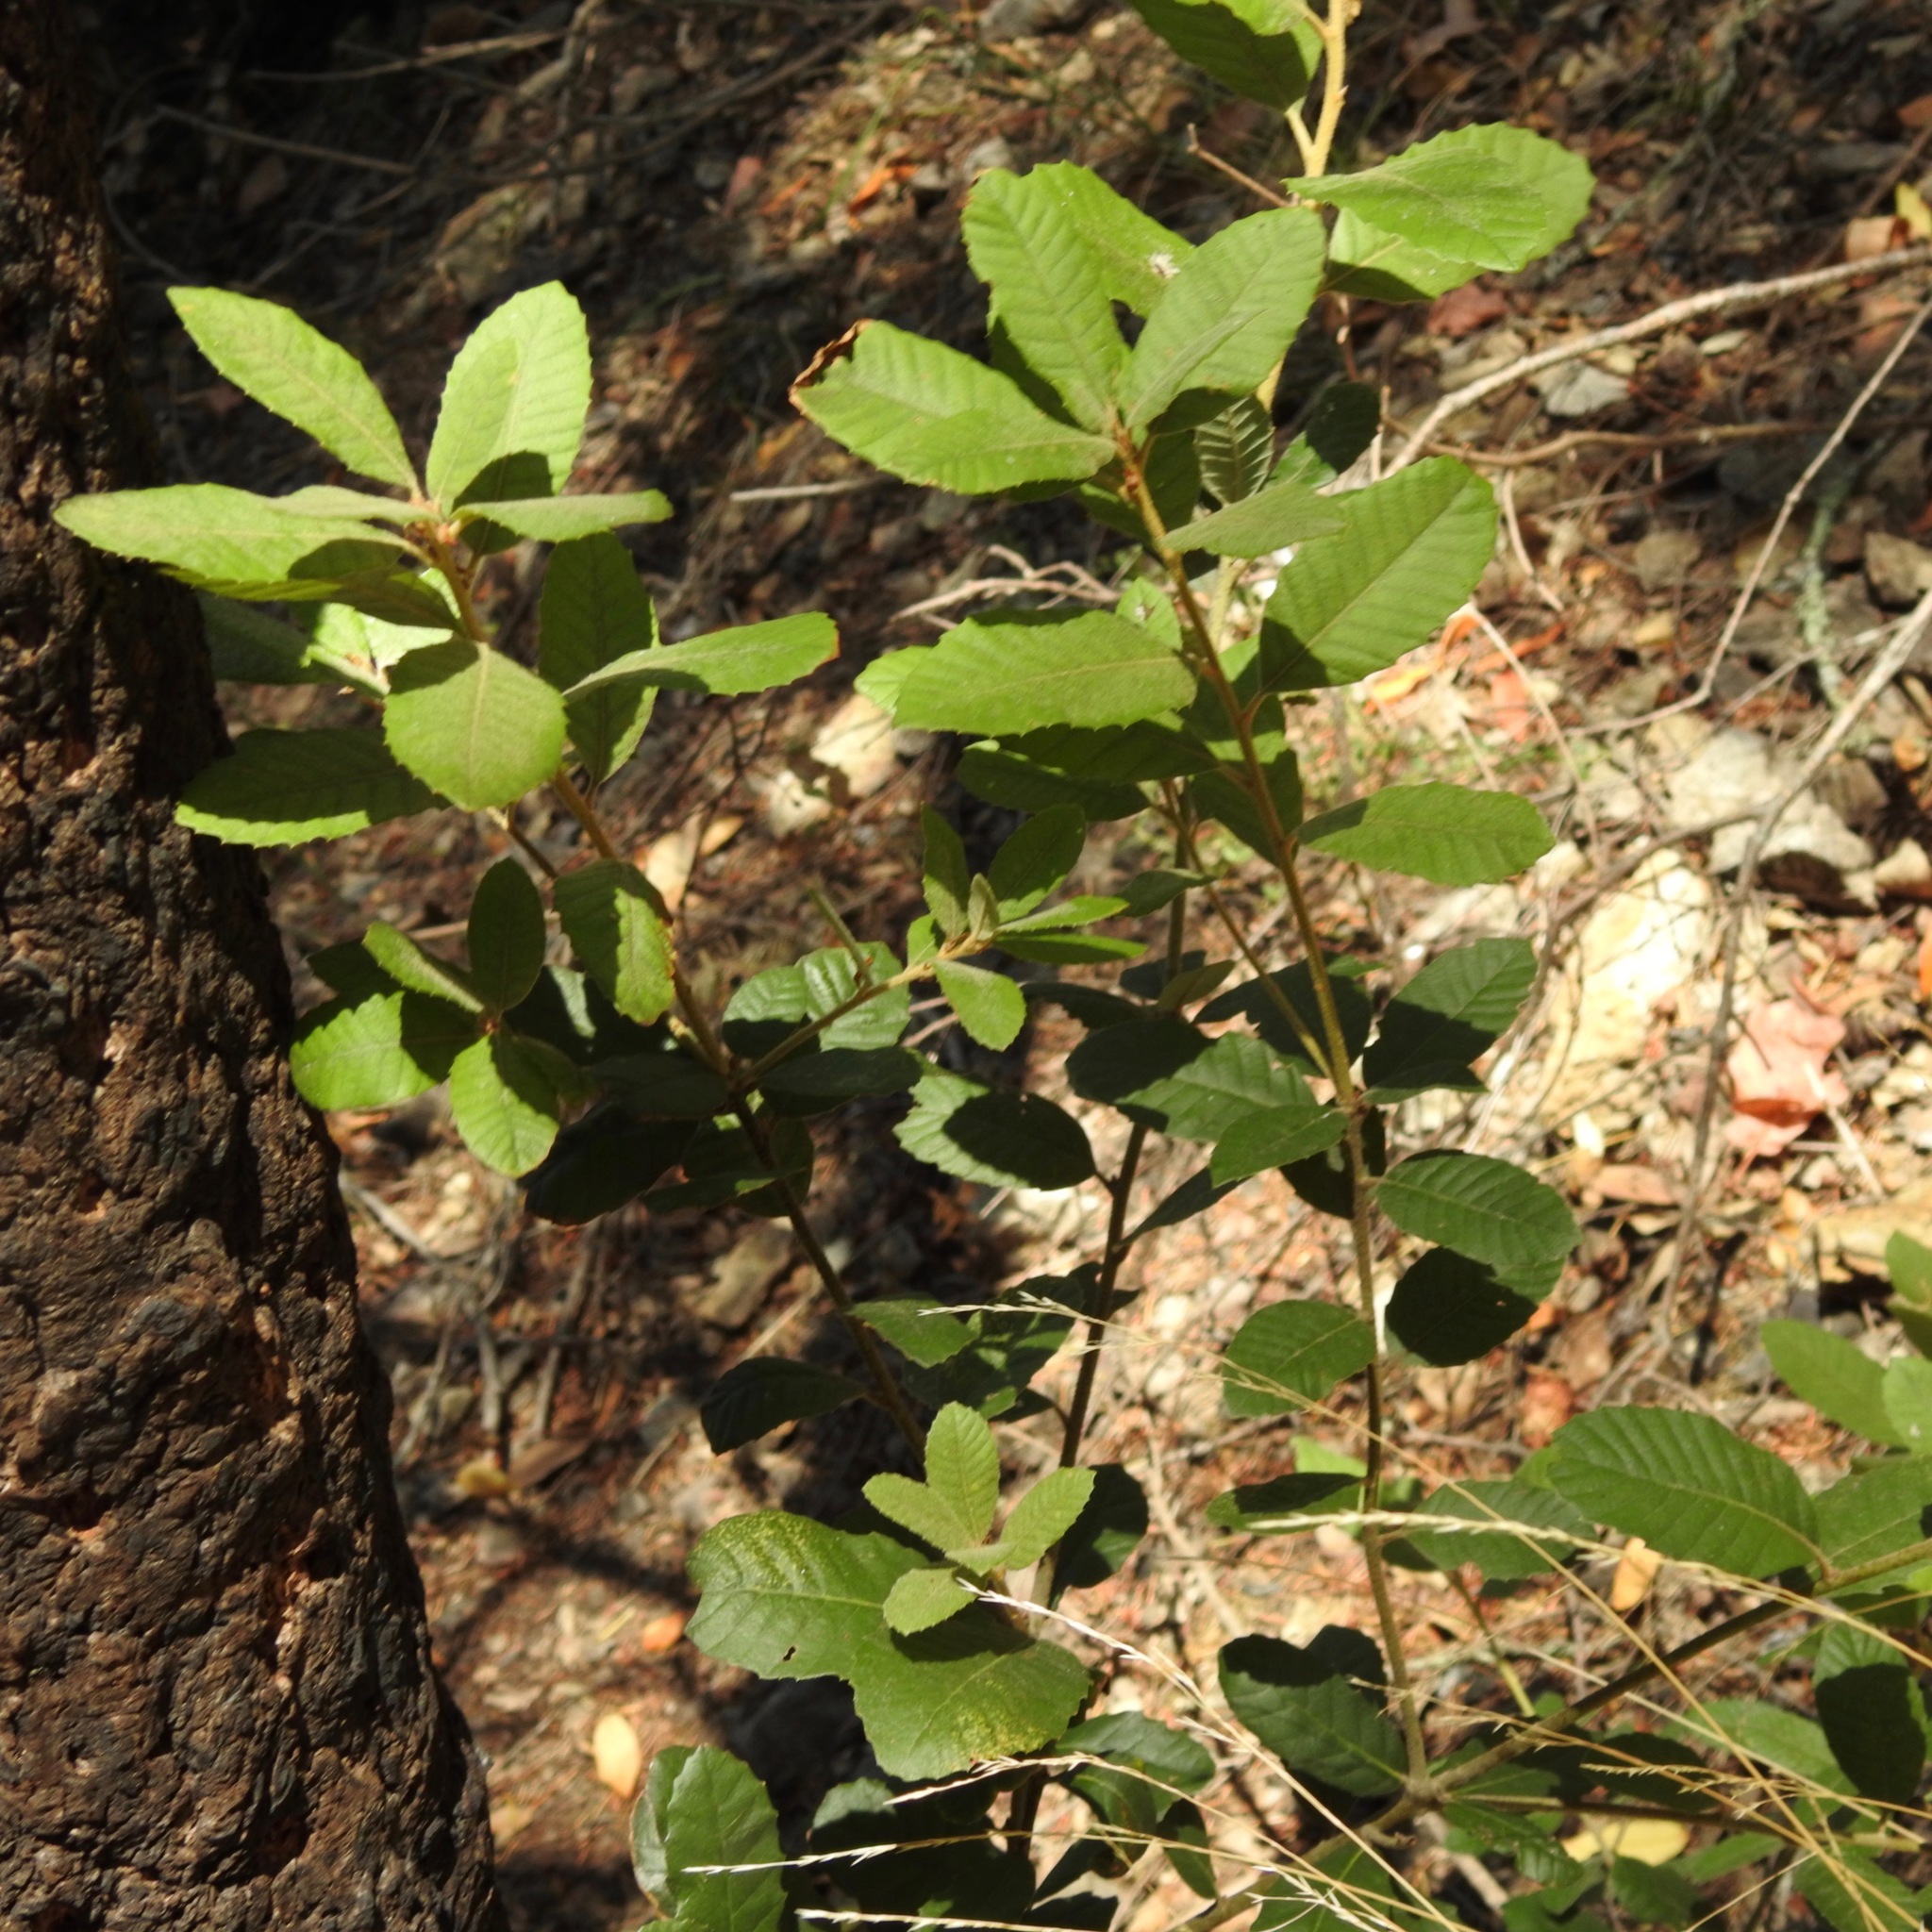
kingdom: Plantae
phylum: Tracheophyta
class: Magnoliopsida
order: Fagales
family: Fagaceae
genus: Notholithocarpus
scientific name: Notholithocarpus densiflorus
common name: Tan bark oak
